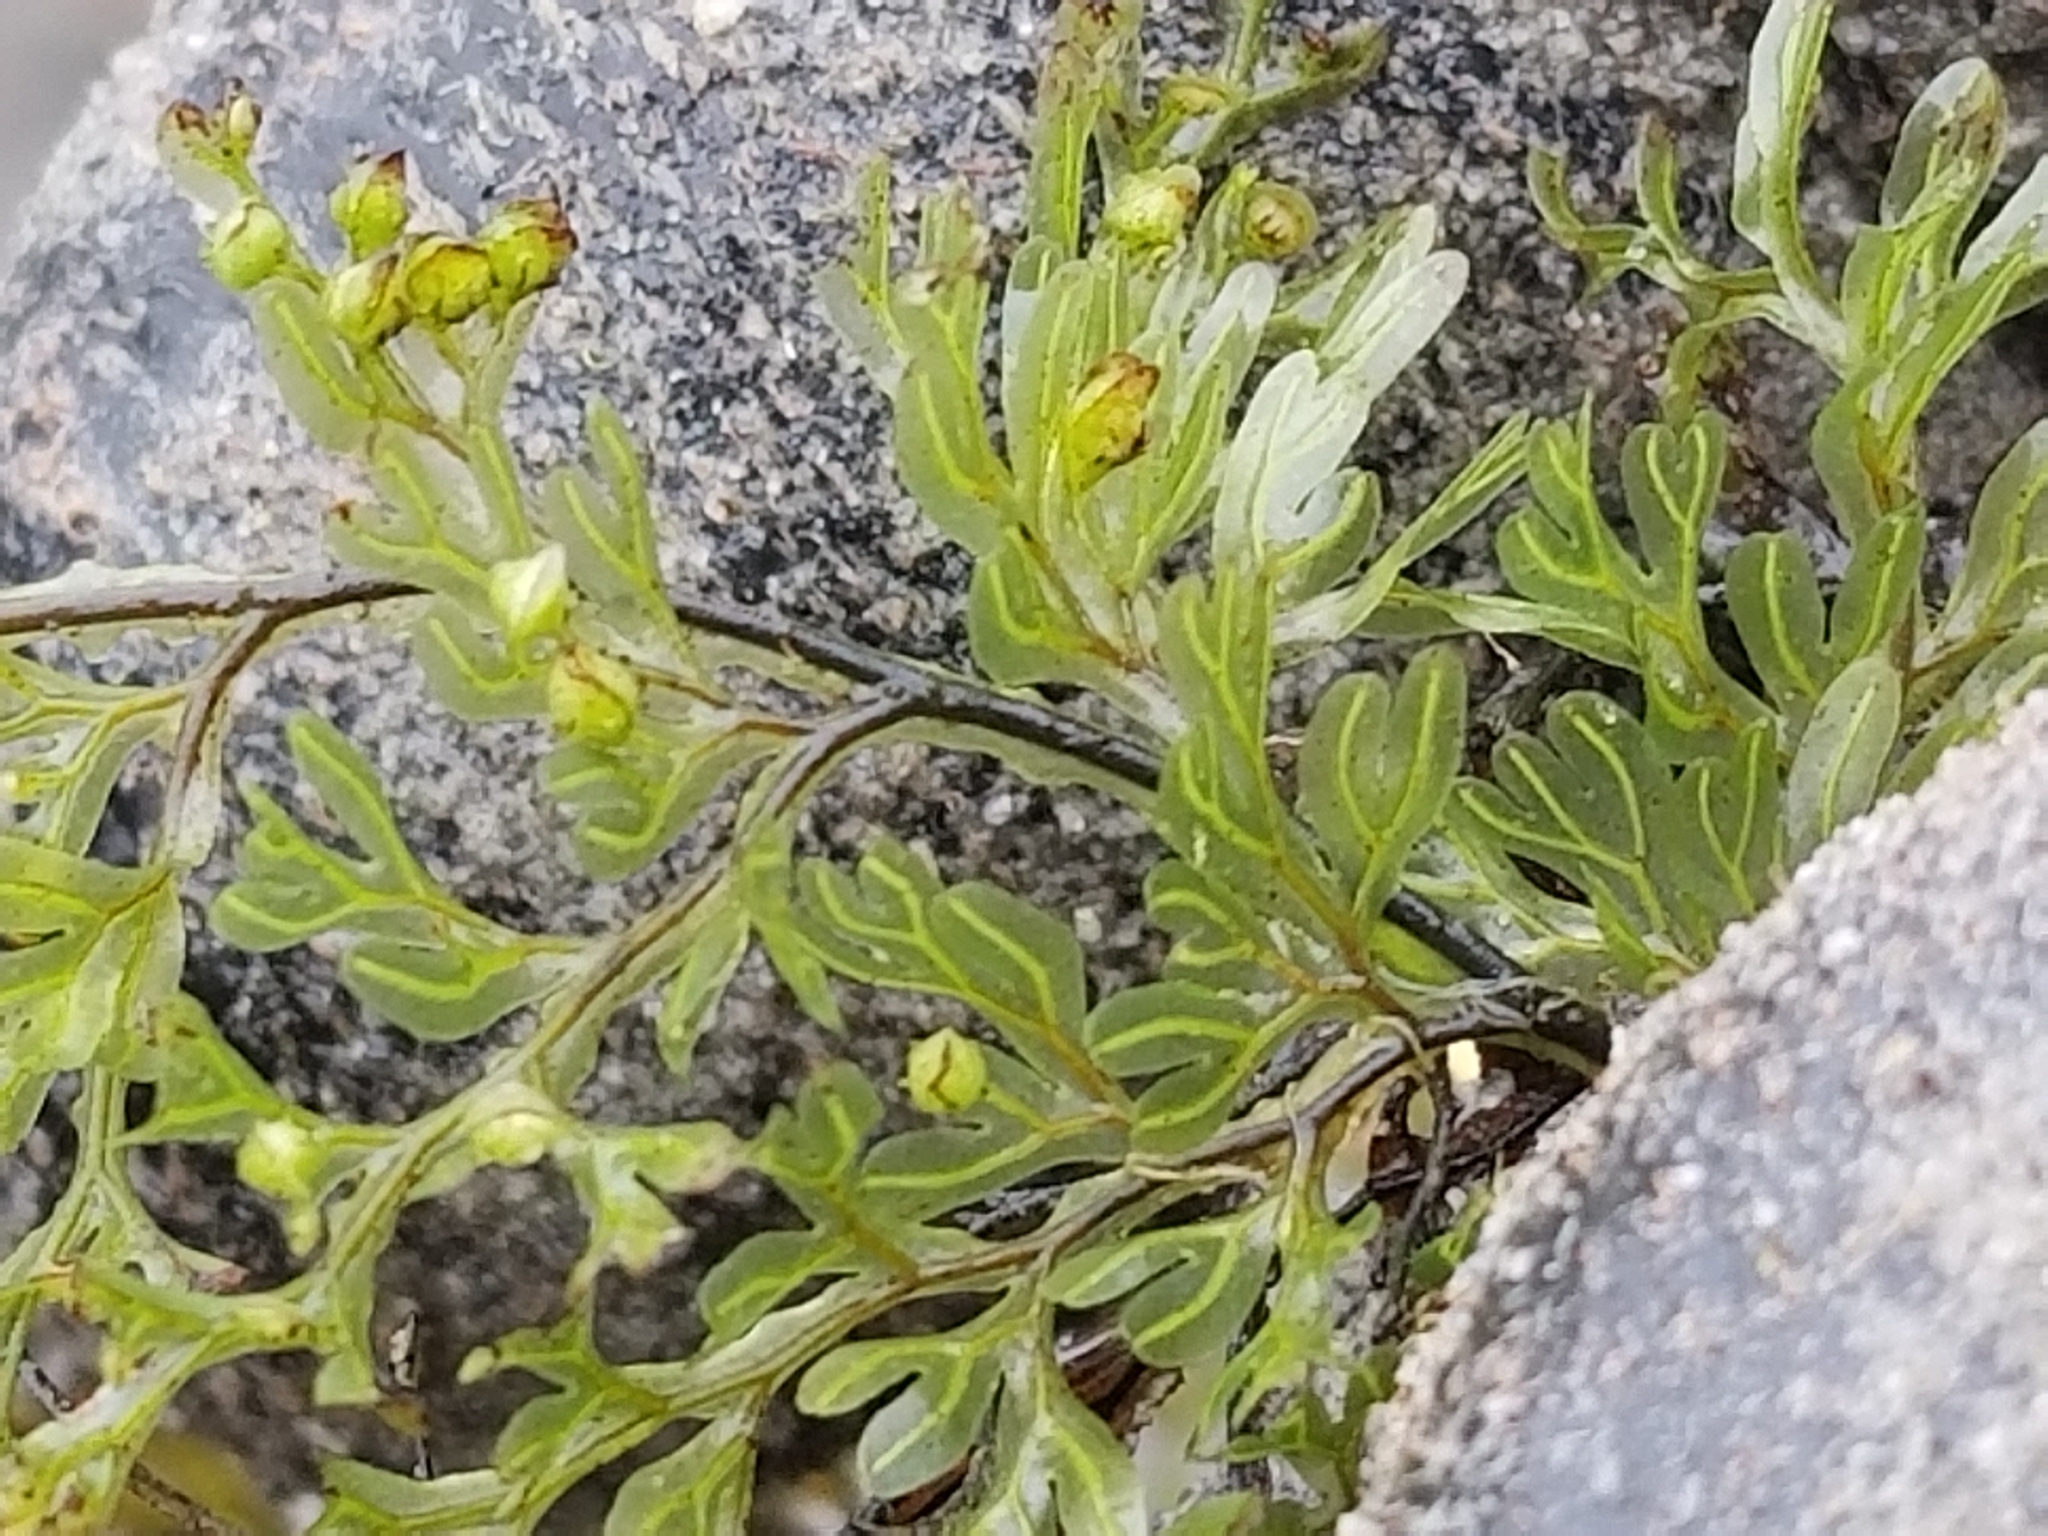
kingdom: Plantae
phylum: Tracheophyta
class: Polypodiopsida
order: Hymenophyllales
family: Hymenophyllaceae
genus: Hymenophyllum
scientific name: Hymenophyllum sanguinolentum
